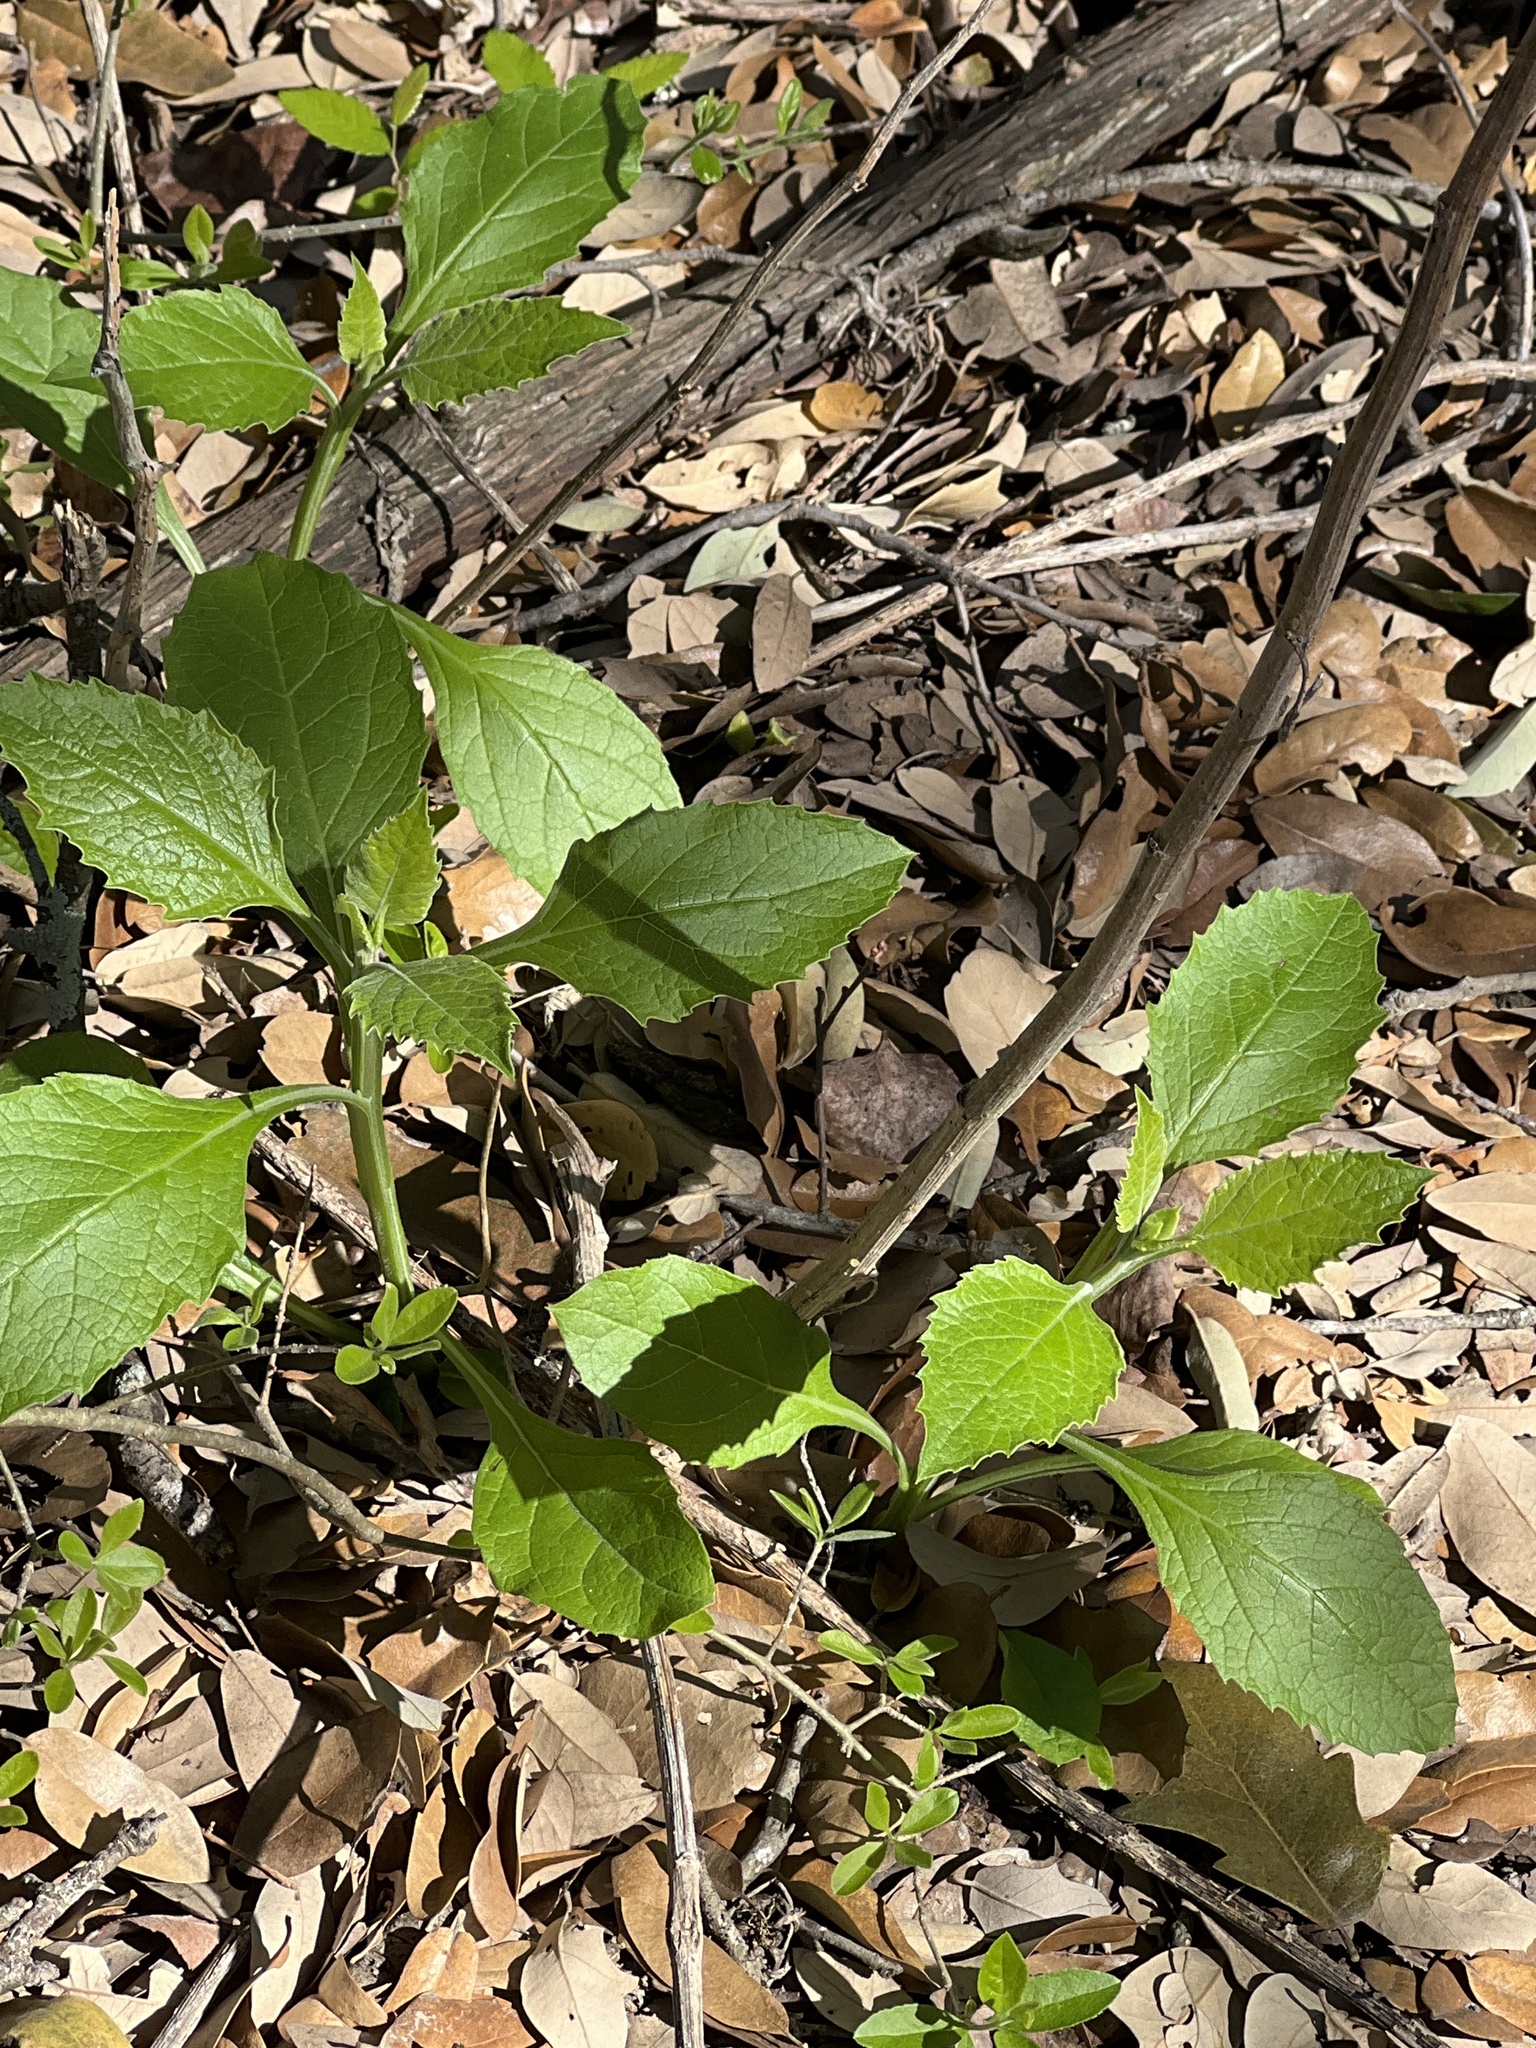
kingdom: Plantae
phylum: Tracheophyta
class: Magnoliopsida
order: Asterales
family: Asteraceae
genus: Verbesina
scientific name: Verbesina virginica
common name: Frostweed
